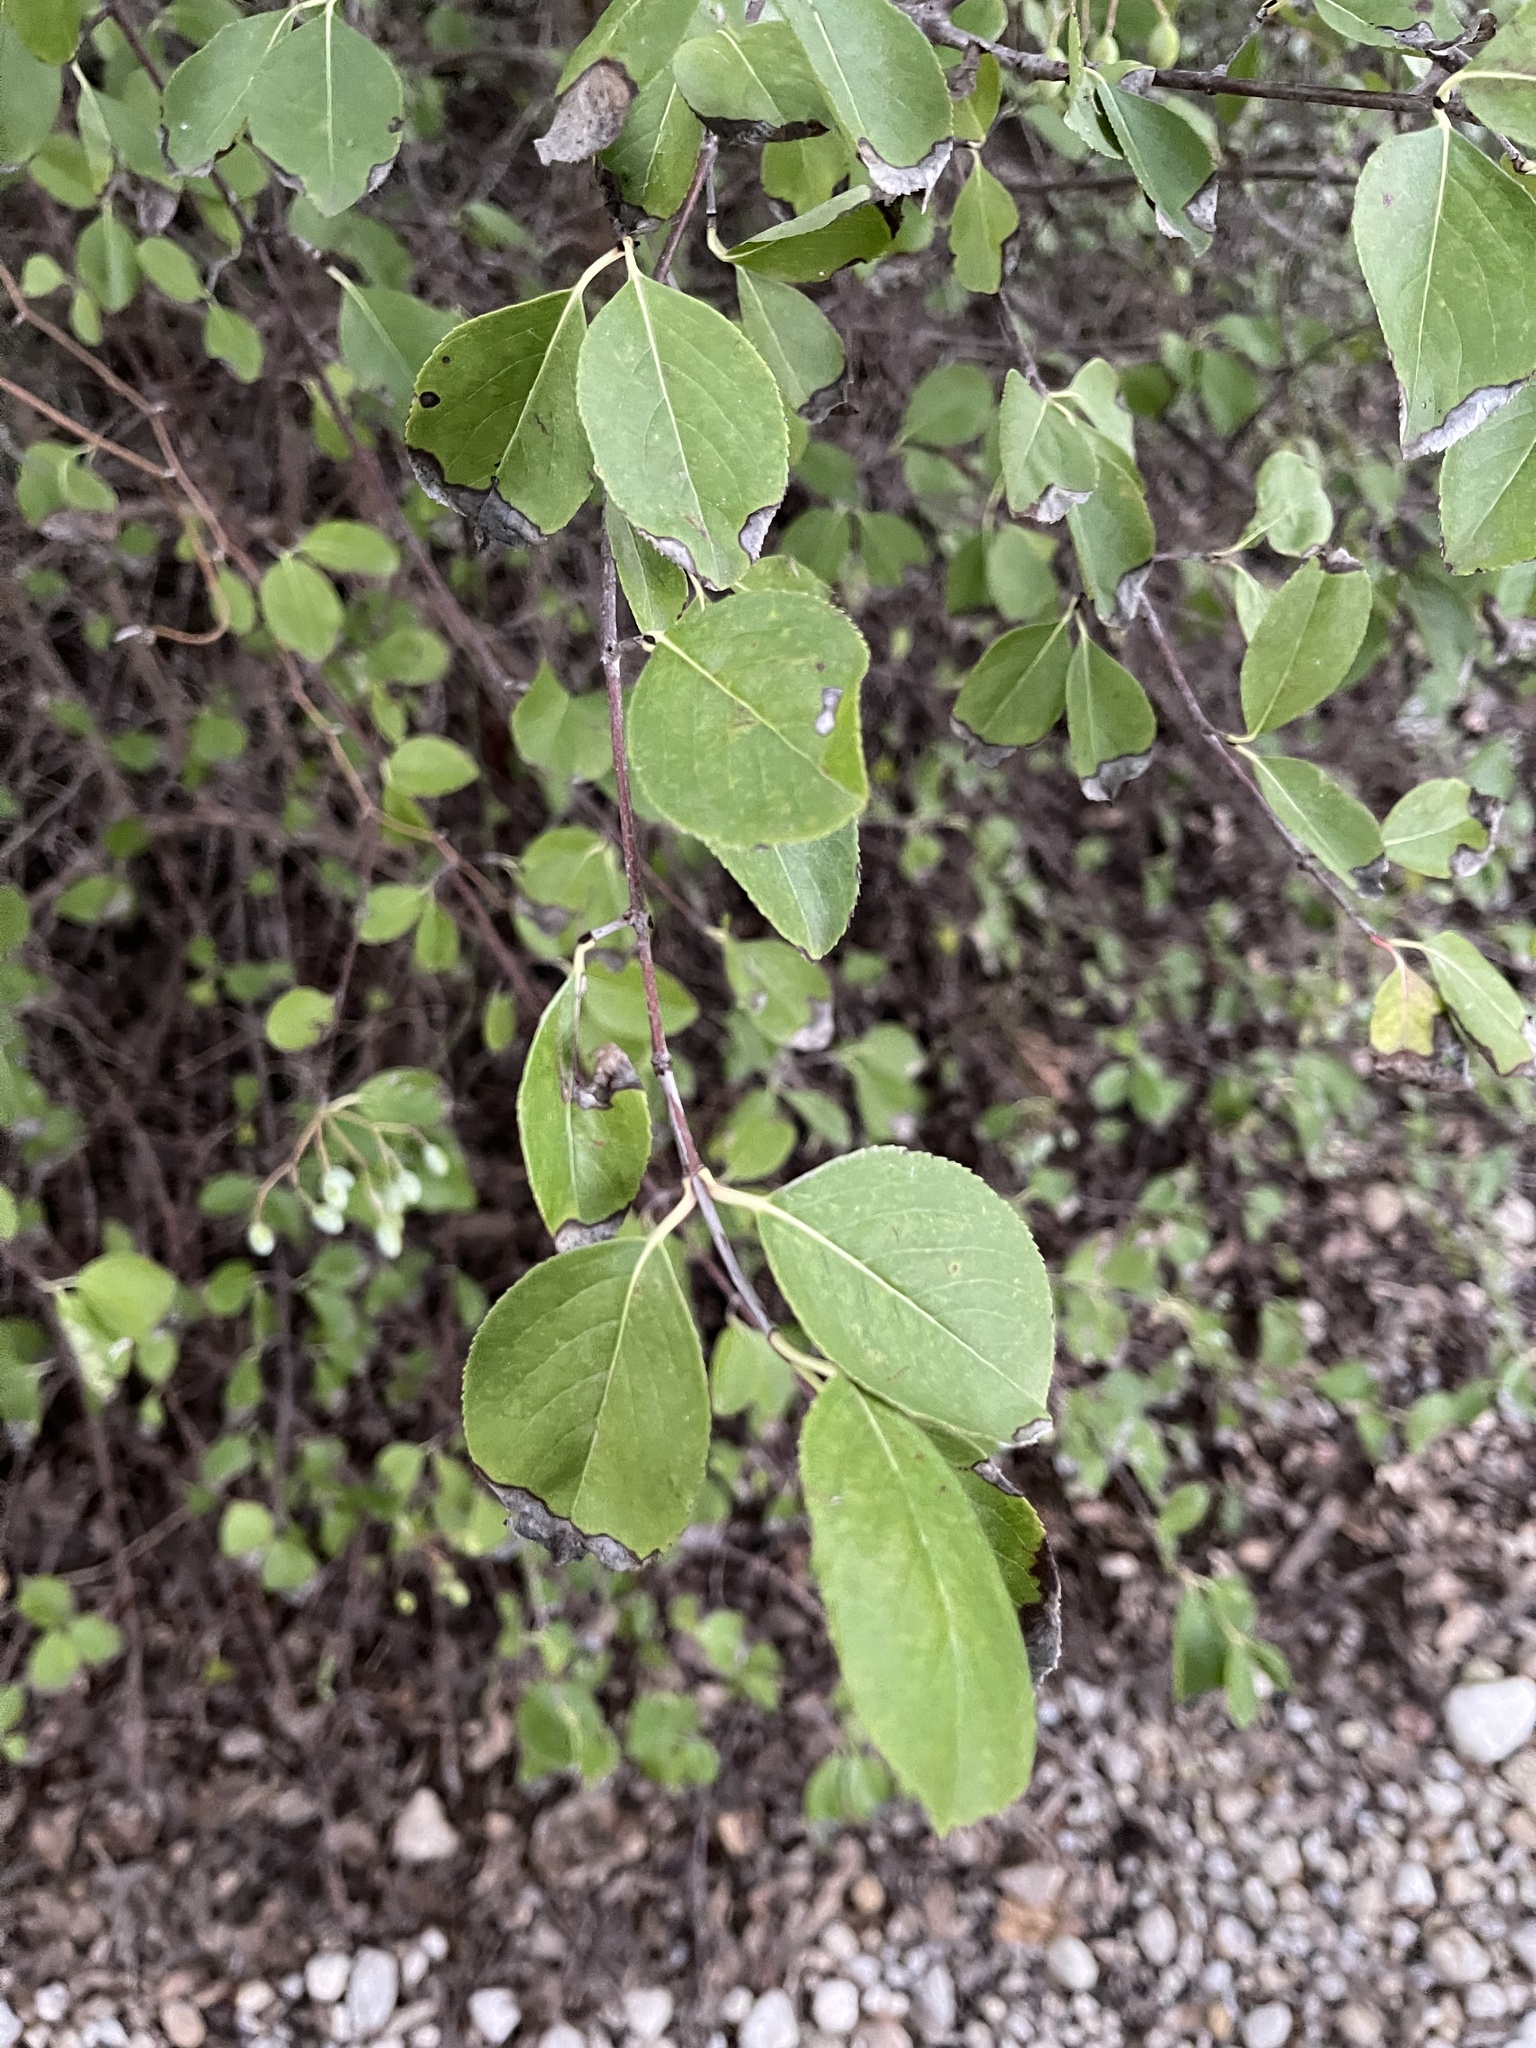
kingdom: Plantae
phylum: Tracheophyta
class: Magnoliopsida
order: Dipsacales
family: Viburnaceae
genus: Viburnum
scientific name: Viburnum rufidulum
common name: Blue haw
